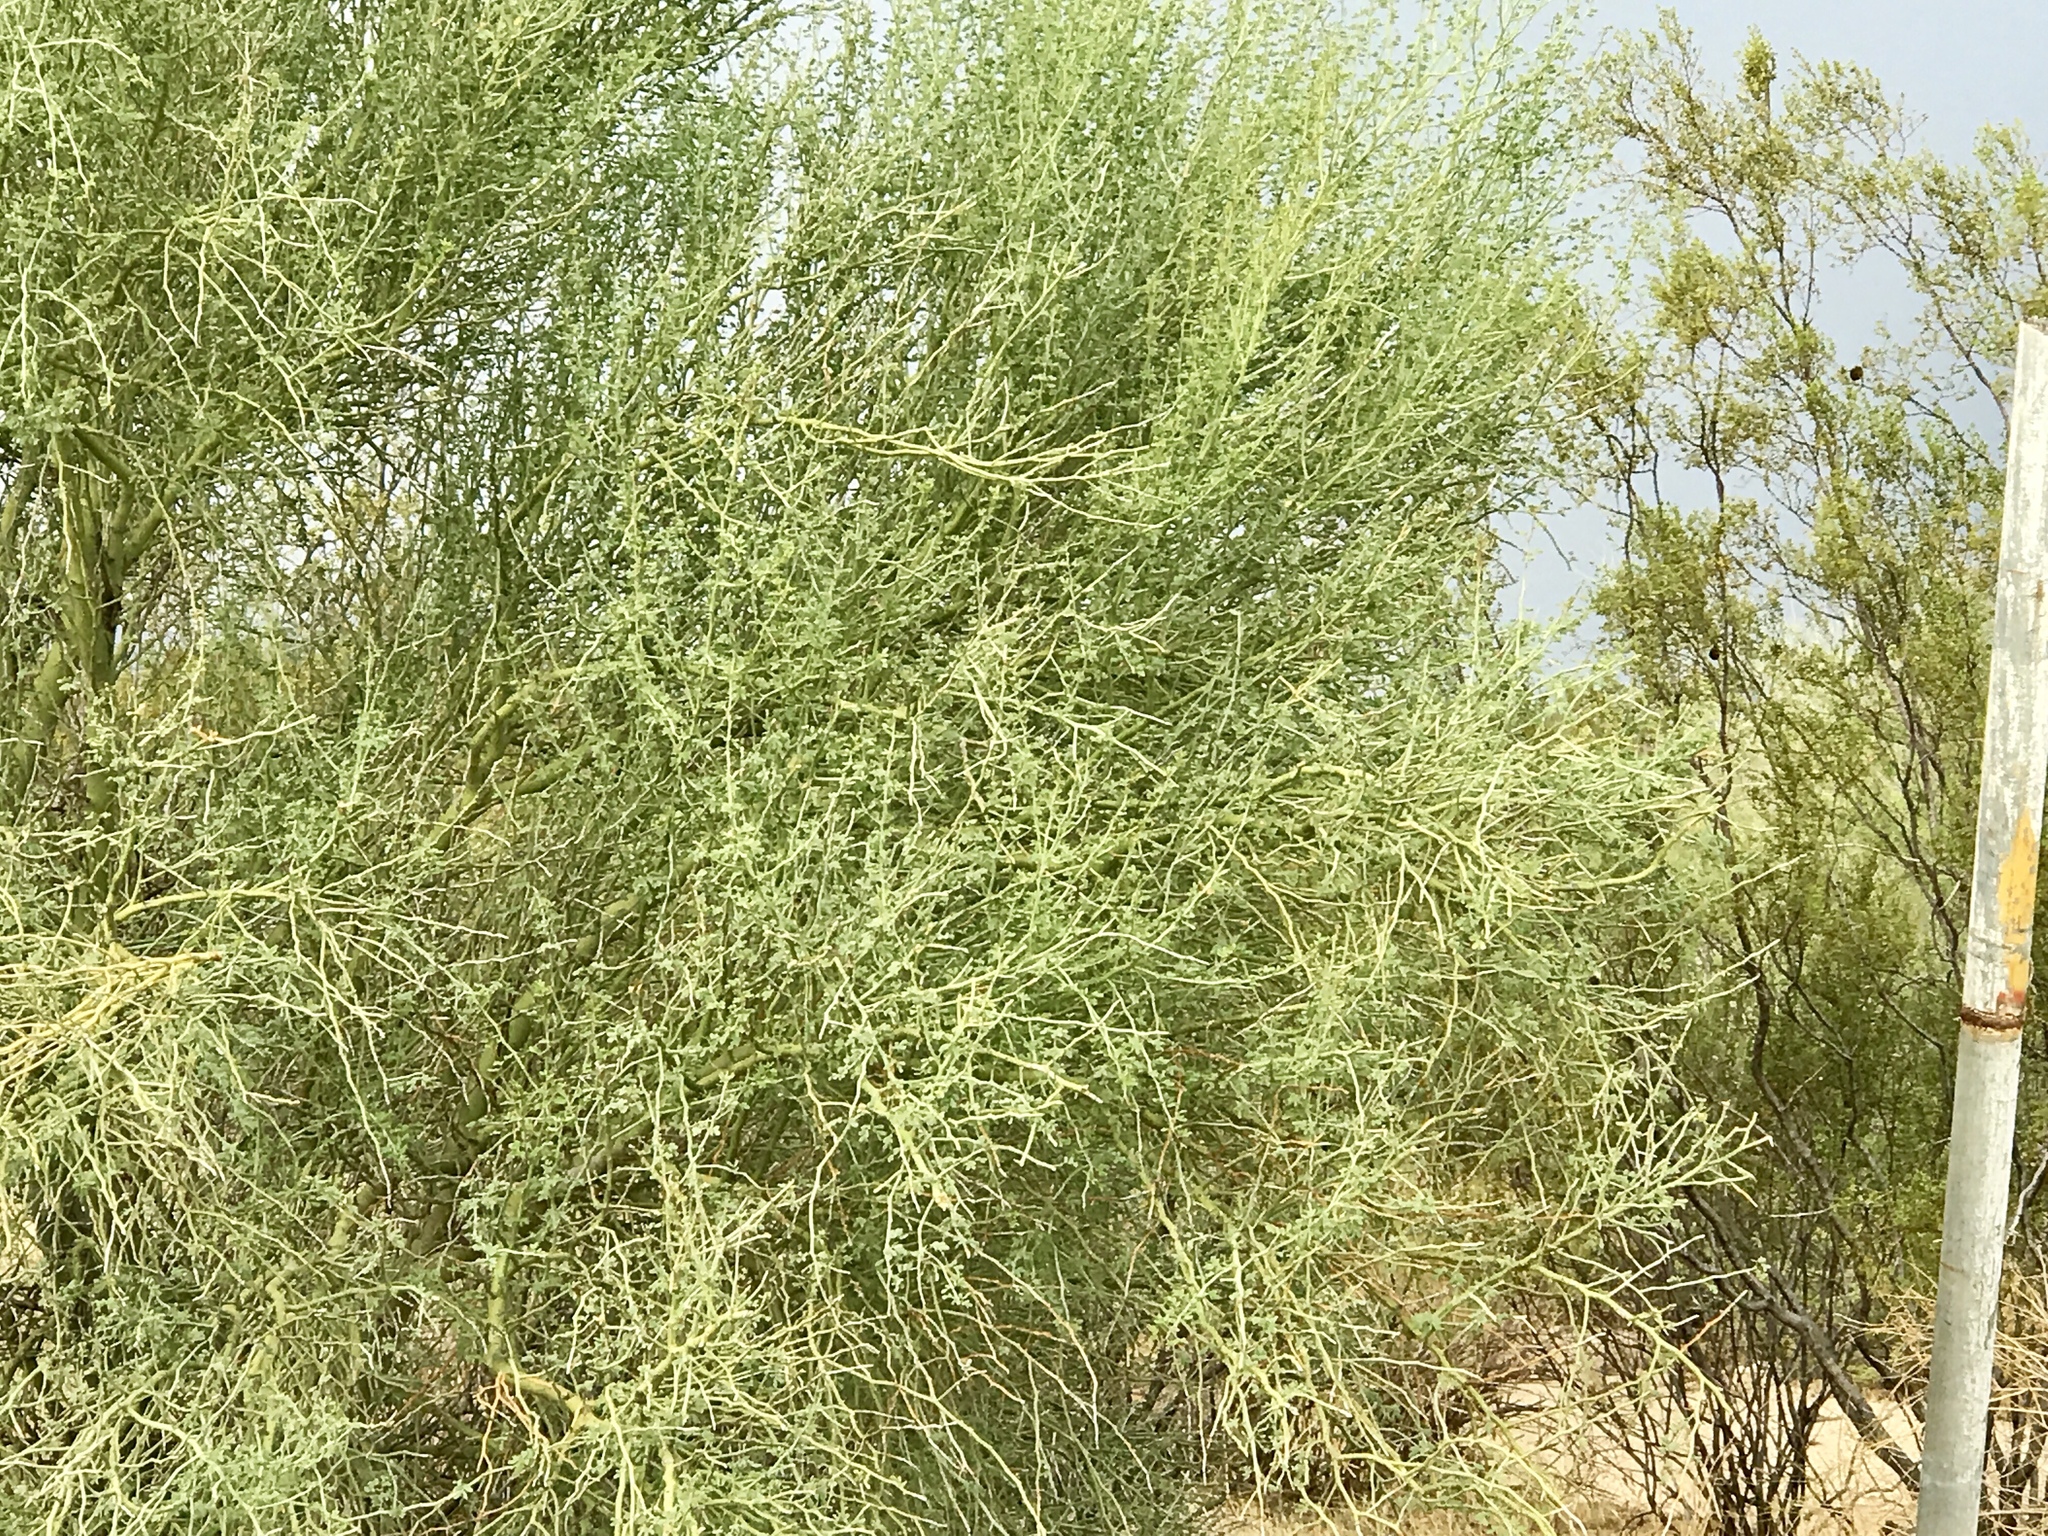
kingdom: Plantae
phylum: Tracheophyta
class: Magnoliopsida
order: Fabales
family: Fabaceae
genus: Parkinsonia
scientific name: Parkinsonia florida
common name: Blue paloverde
